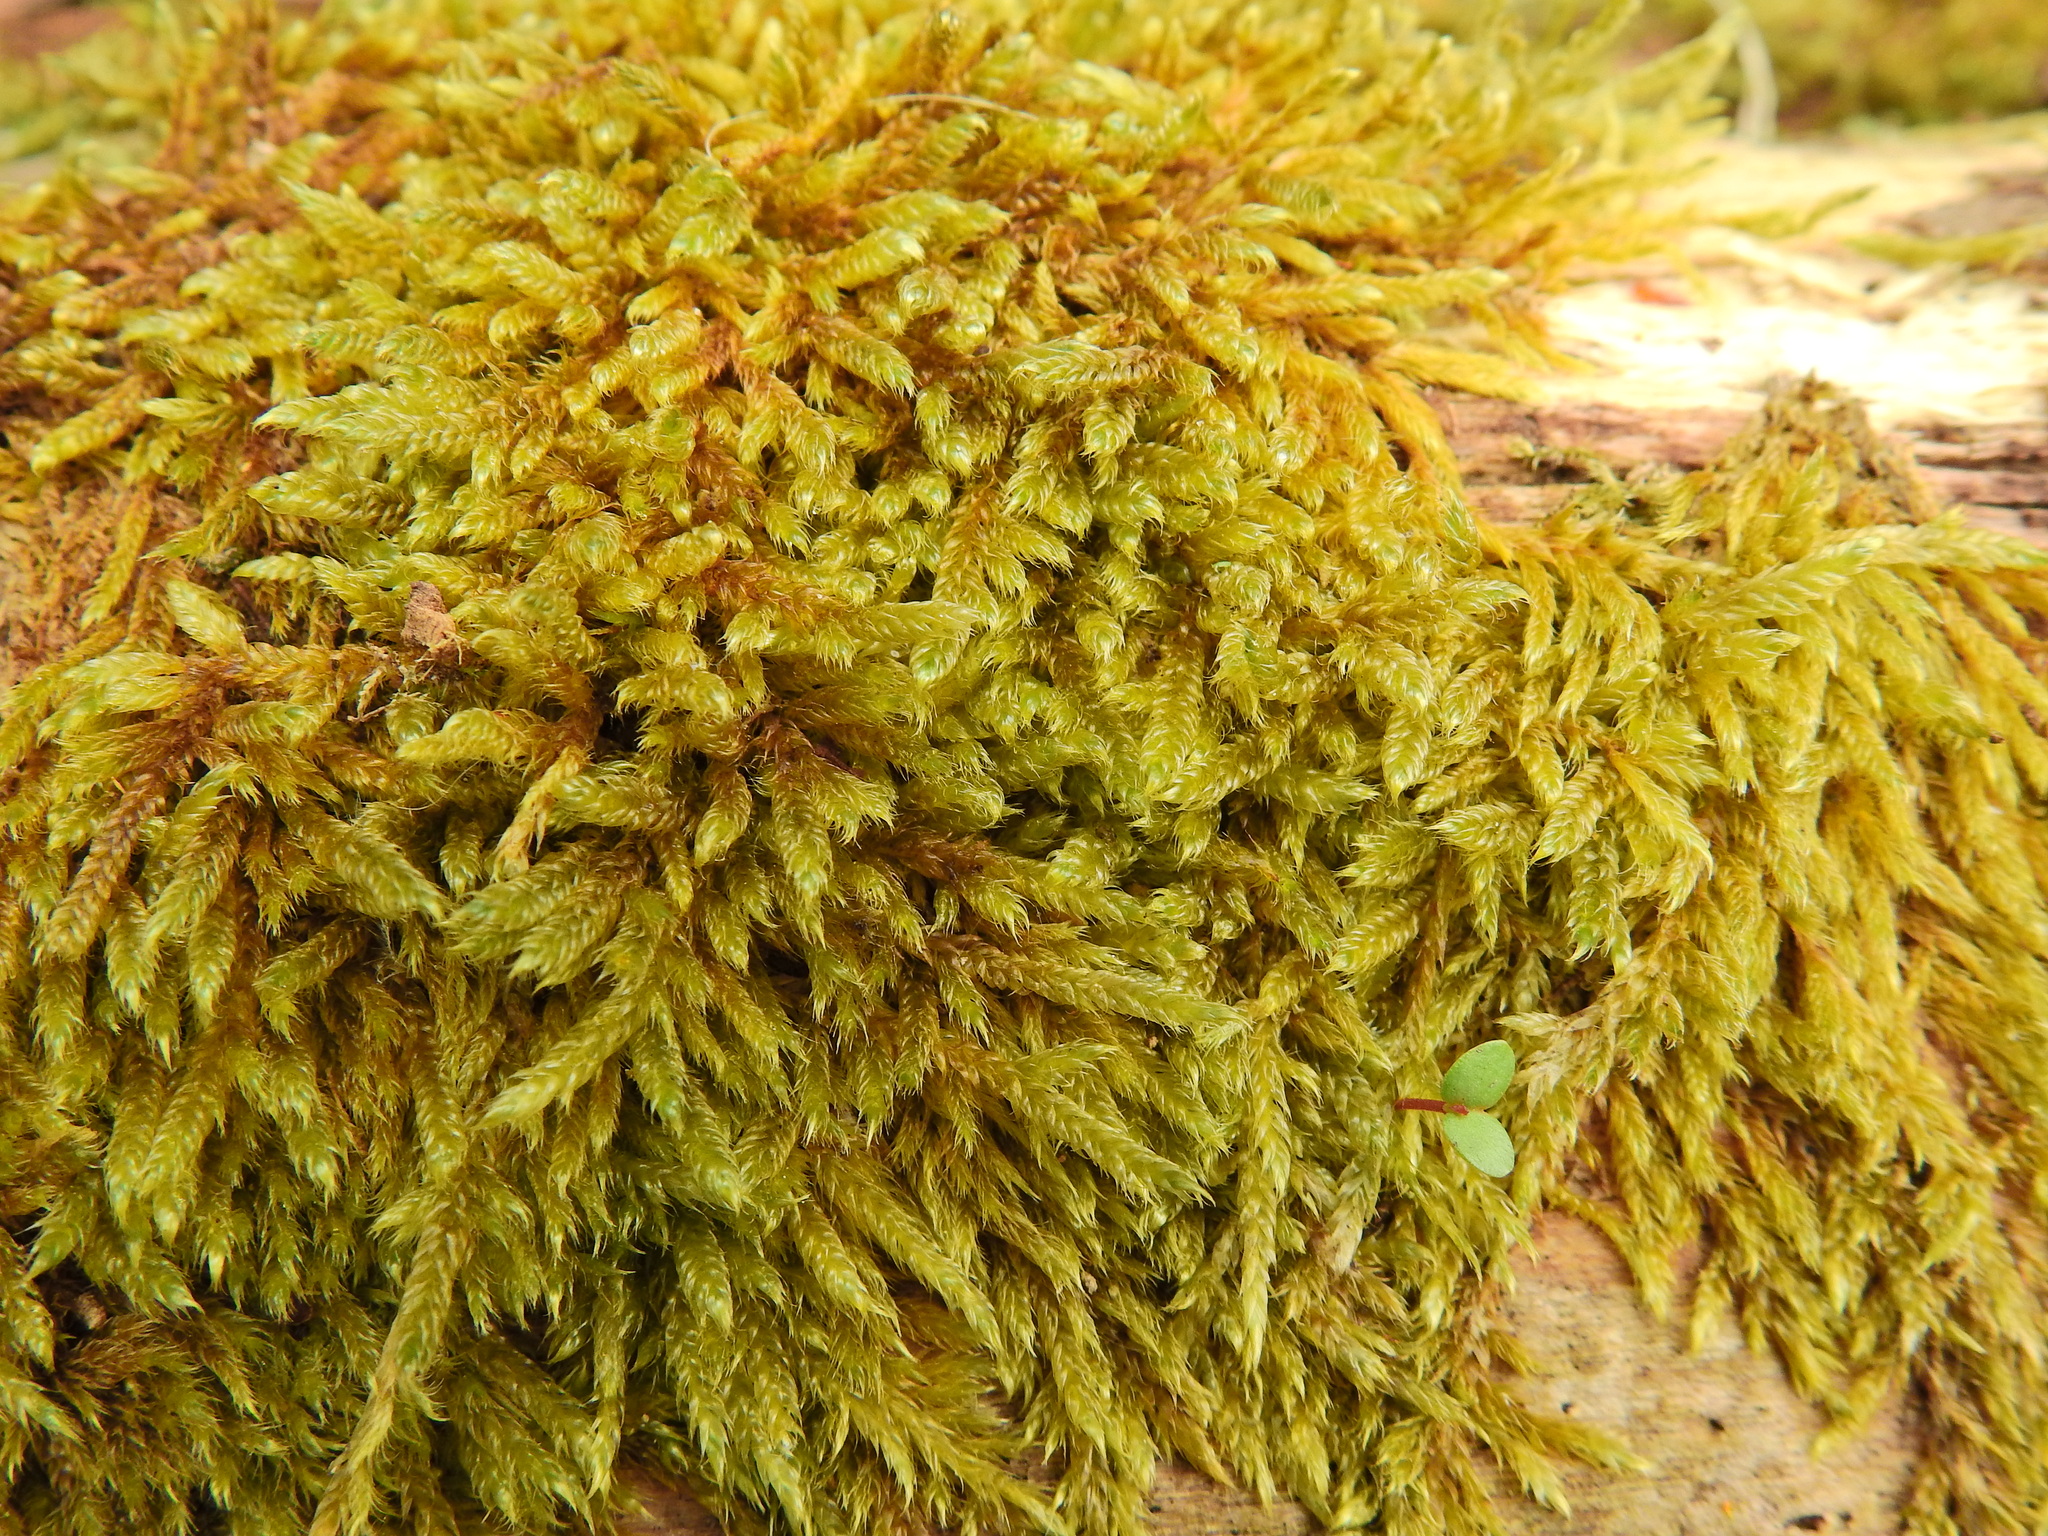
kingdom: Plantae
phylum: Bryophyta
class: Bryopsida
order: Hypnales
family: Hypnaceae
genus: Hypnum
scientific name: Hypnum cupressiforme
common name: Cypress-leaved plait-moss
